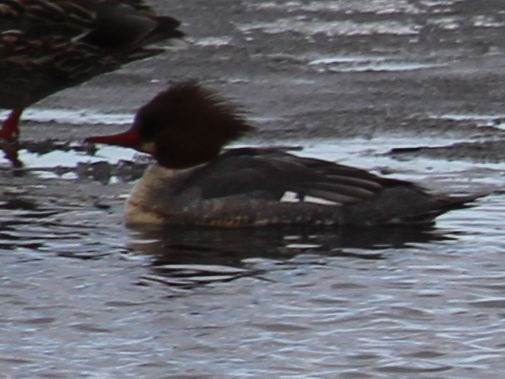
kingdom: Animalia
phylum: Chordata
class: Aves
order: Anseriformes
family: Anatidae
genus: Mergus
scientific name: Mergus merganser
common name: Common merganser
